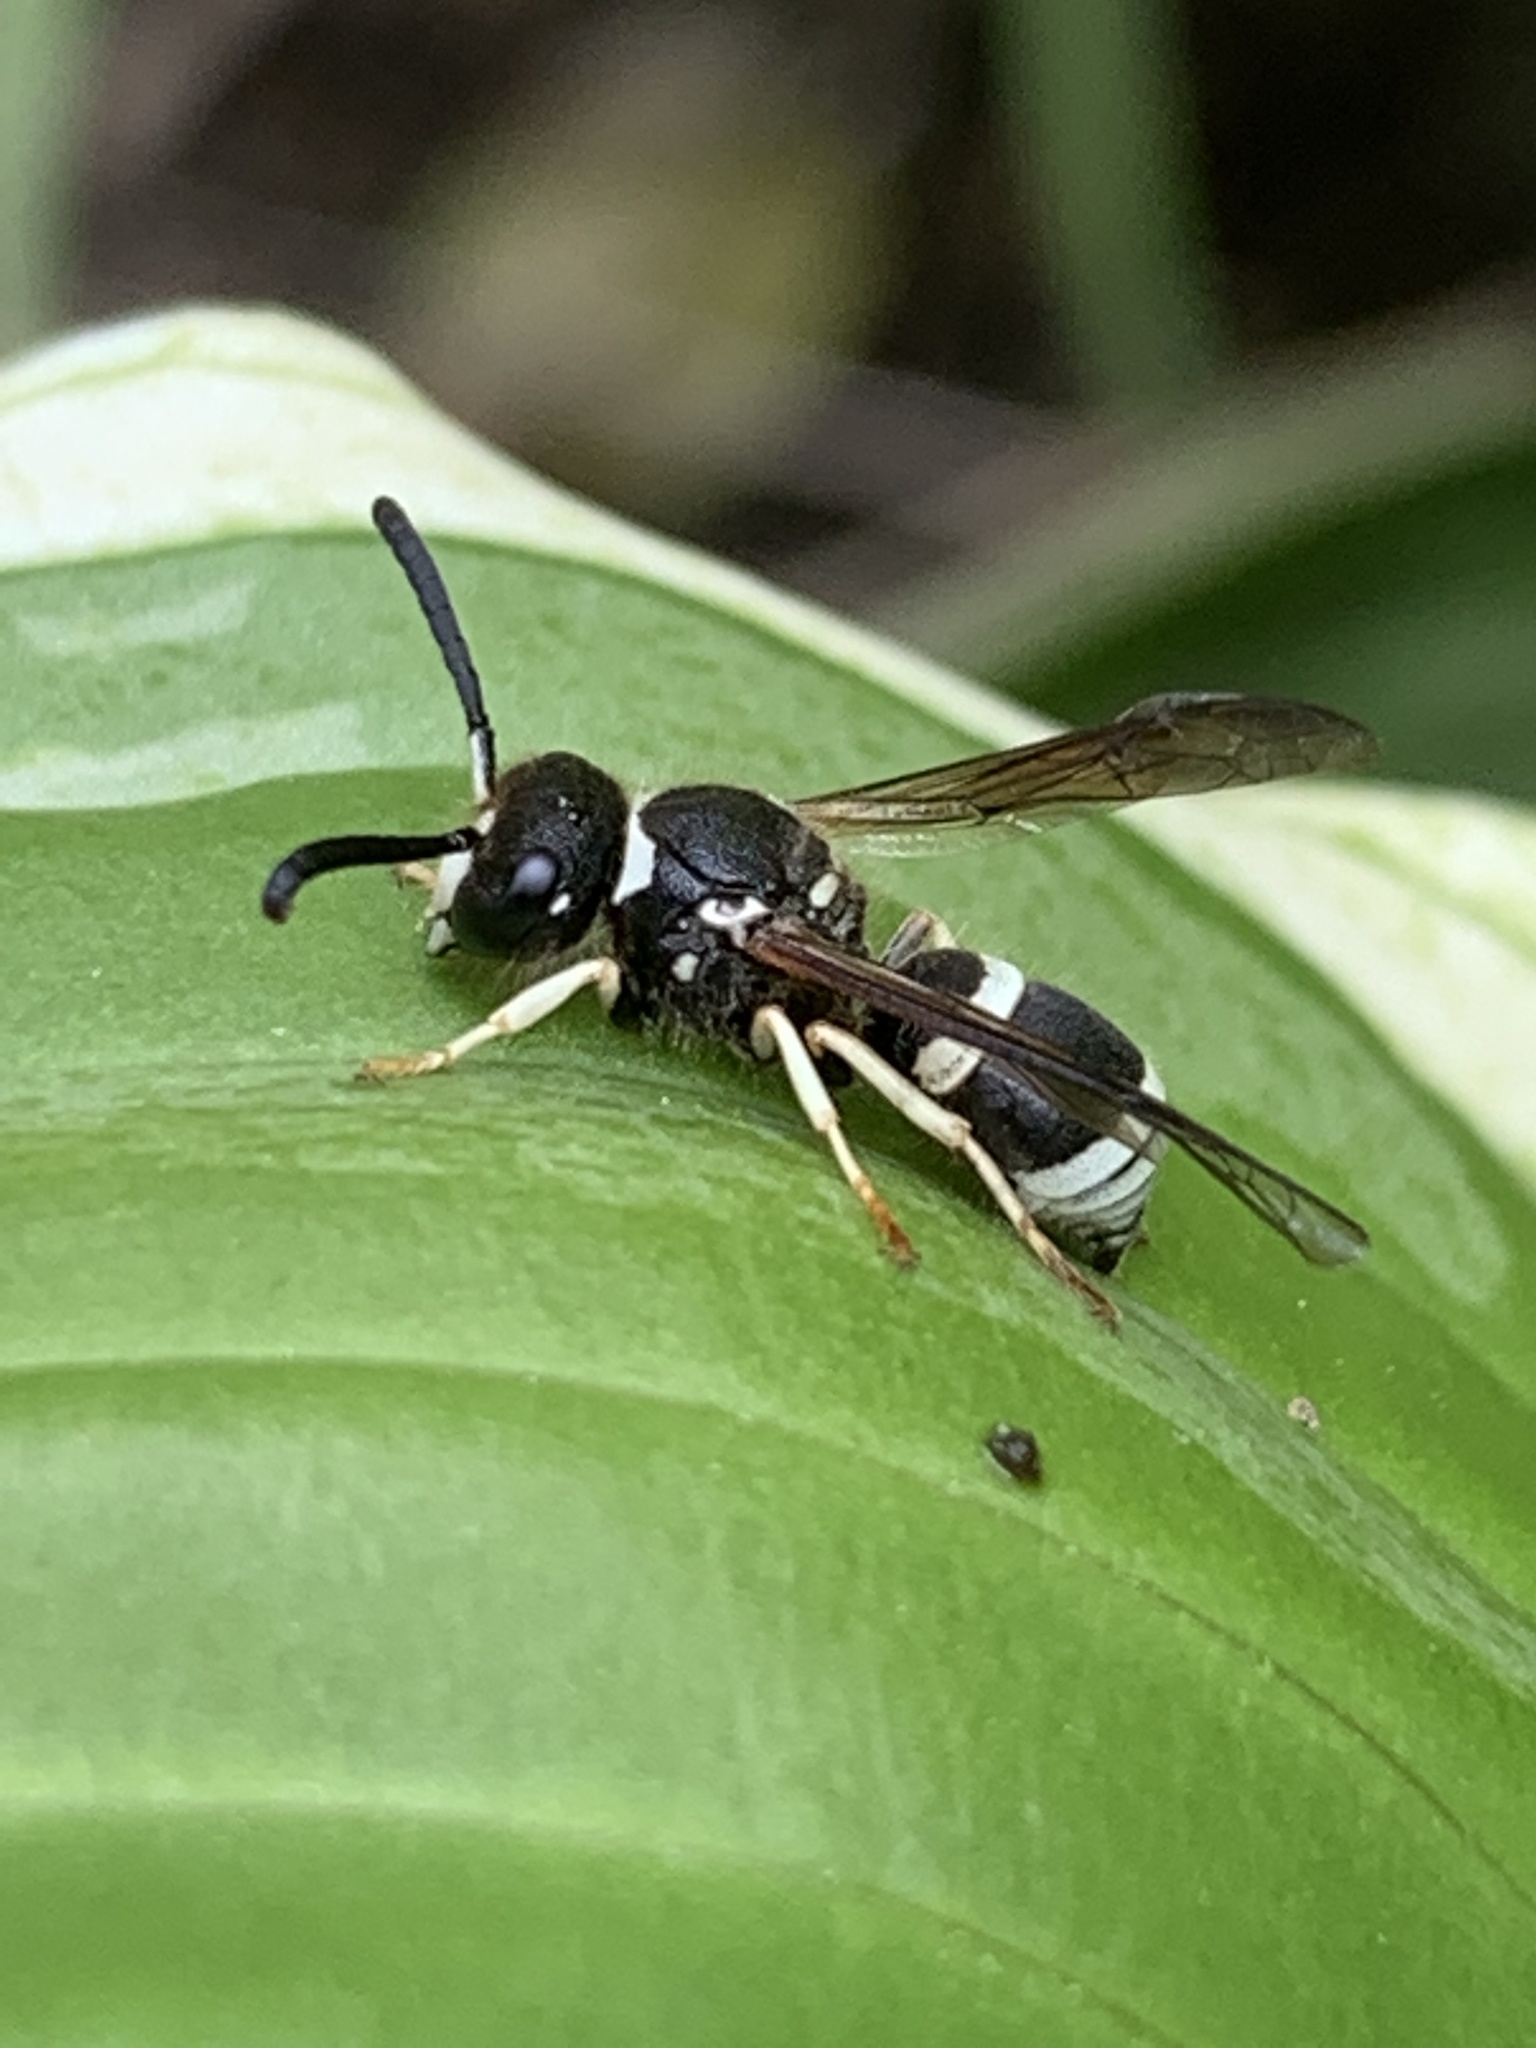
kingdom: Animalia
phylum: Arthropoda
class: Insecta
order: Hymenoptera
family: Vespidae
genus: Ancistrocerus
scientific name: Ancistrocerus waldenii
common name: Walden’s potter wasp
